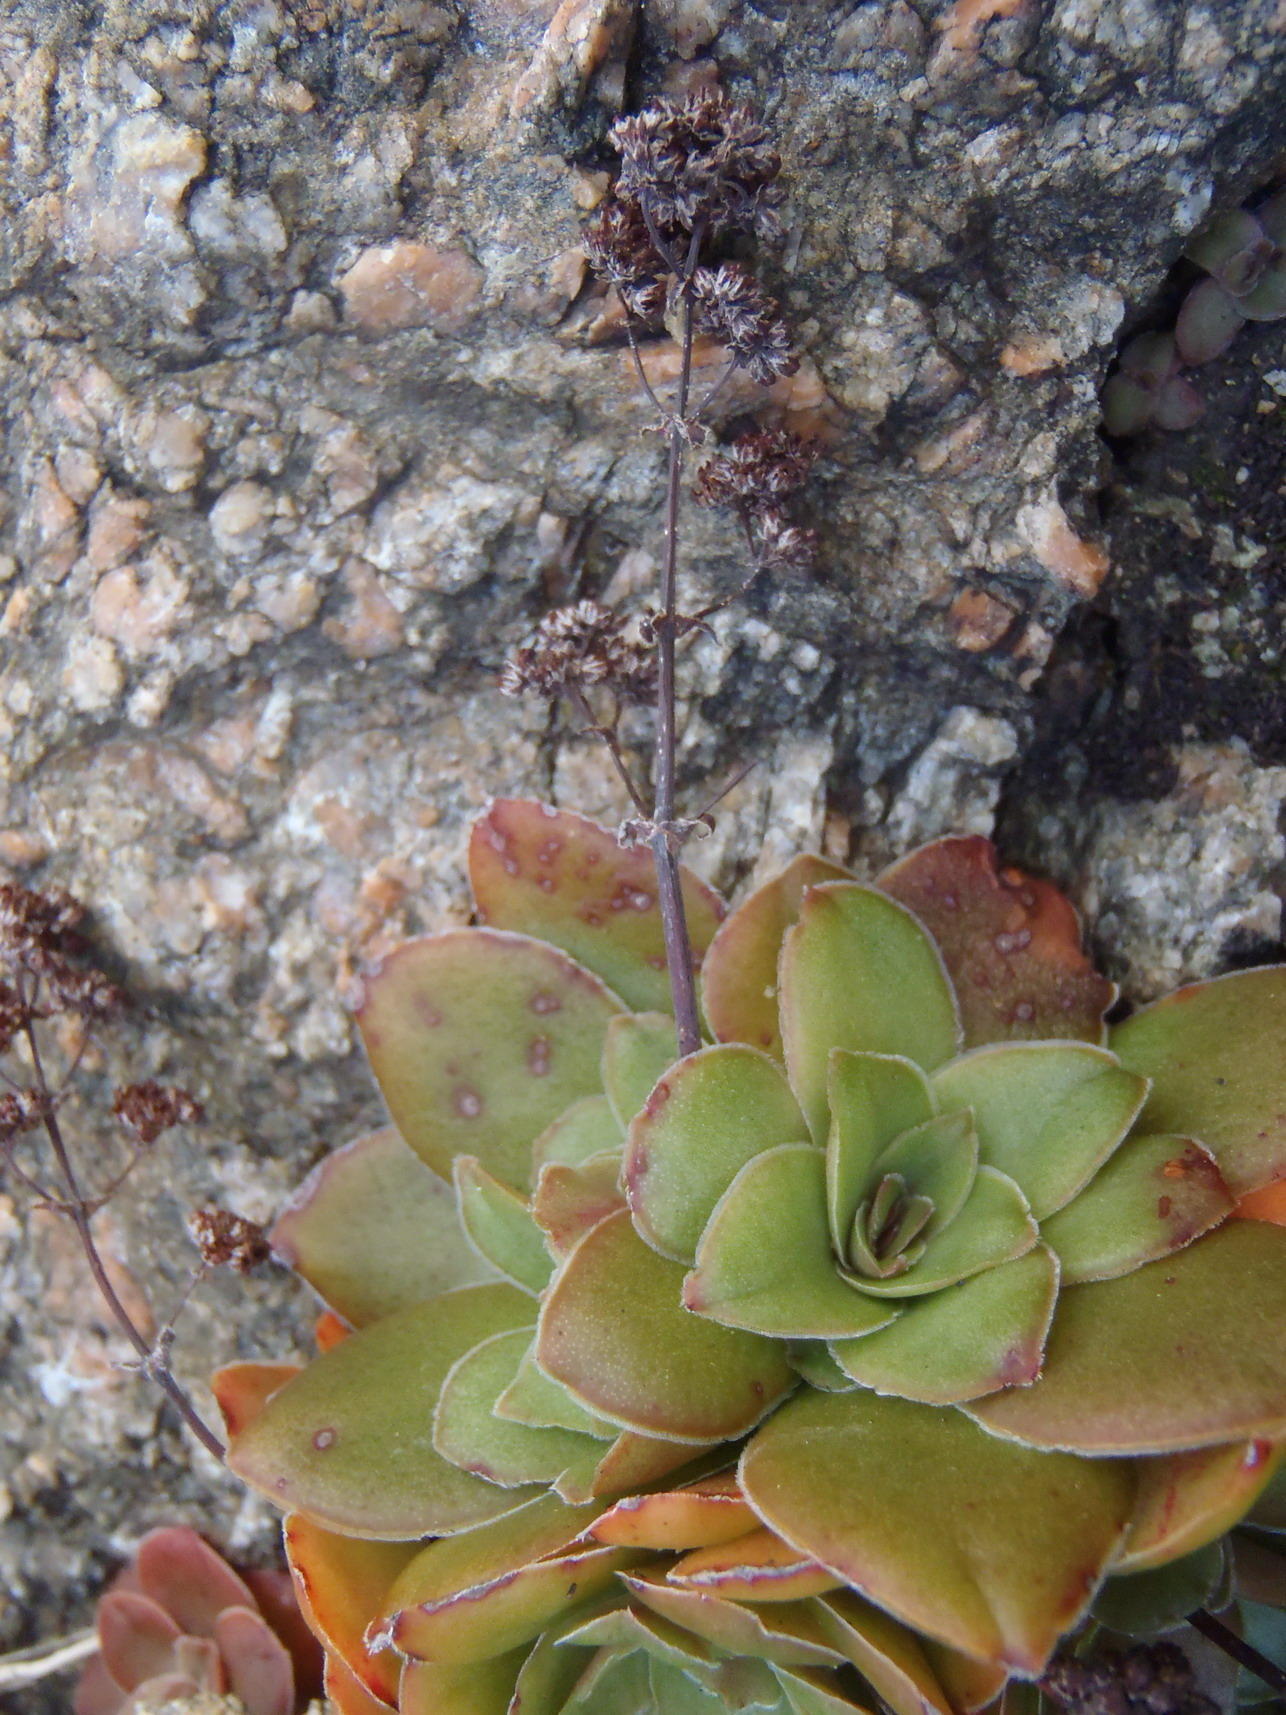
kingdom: Plantae
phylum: Tracheophyta
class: Magnoliopsida
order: Saxifragales
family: Crassulaceae
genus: Crassula
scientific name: Crassula orbicularis
